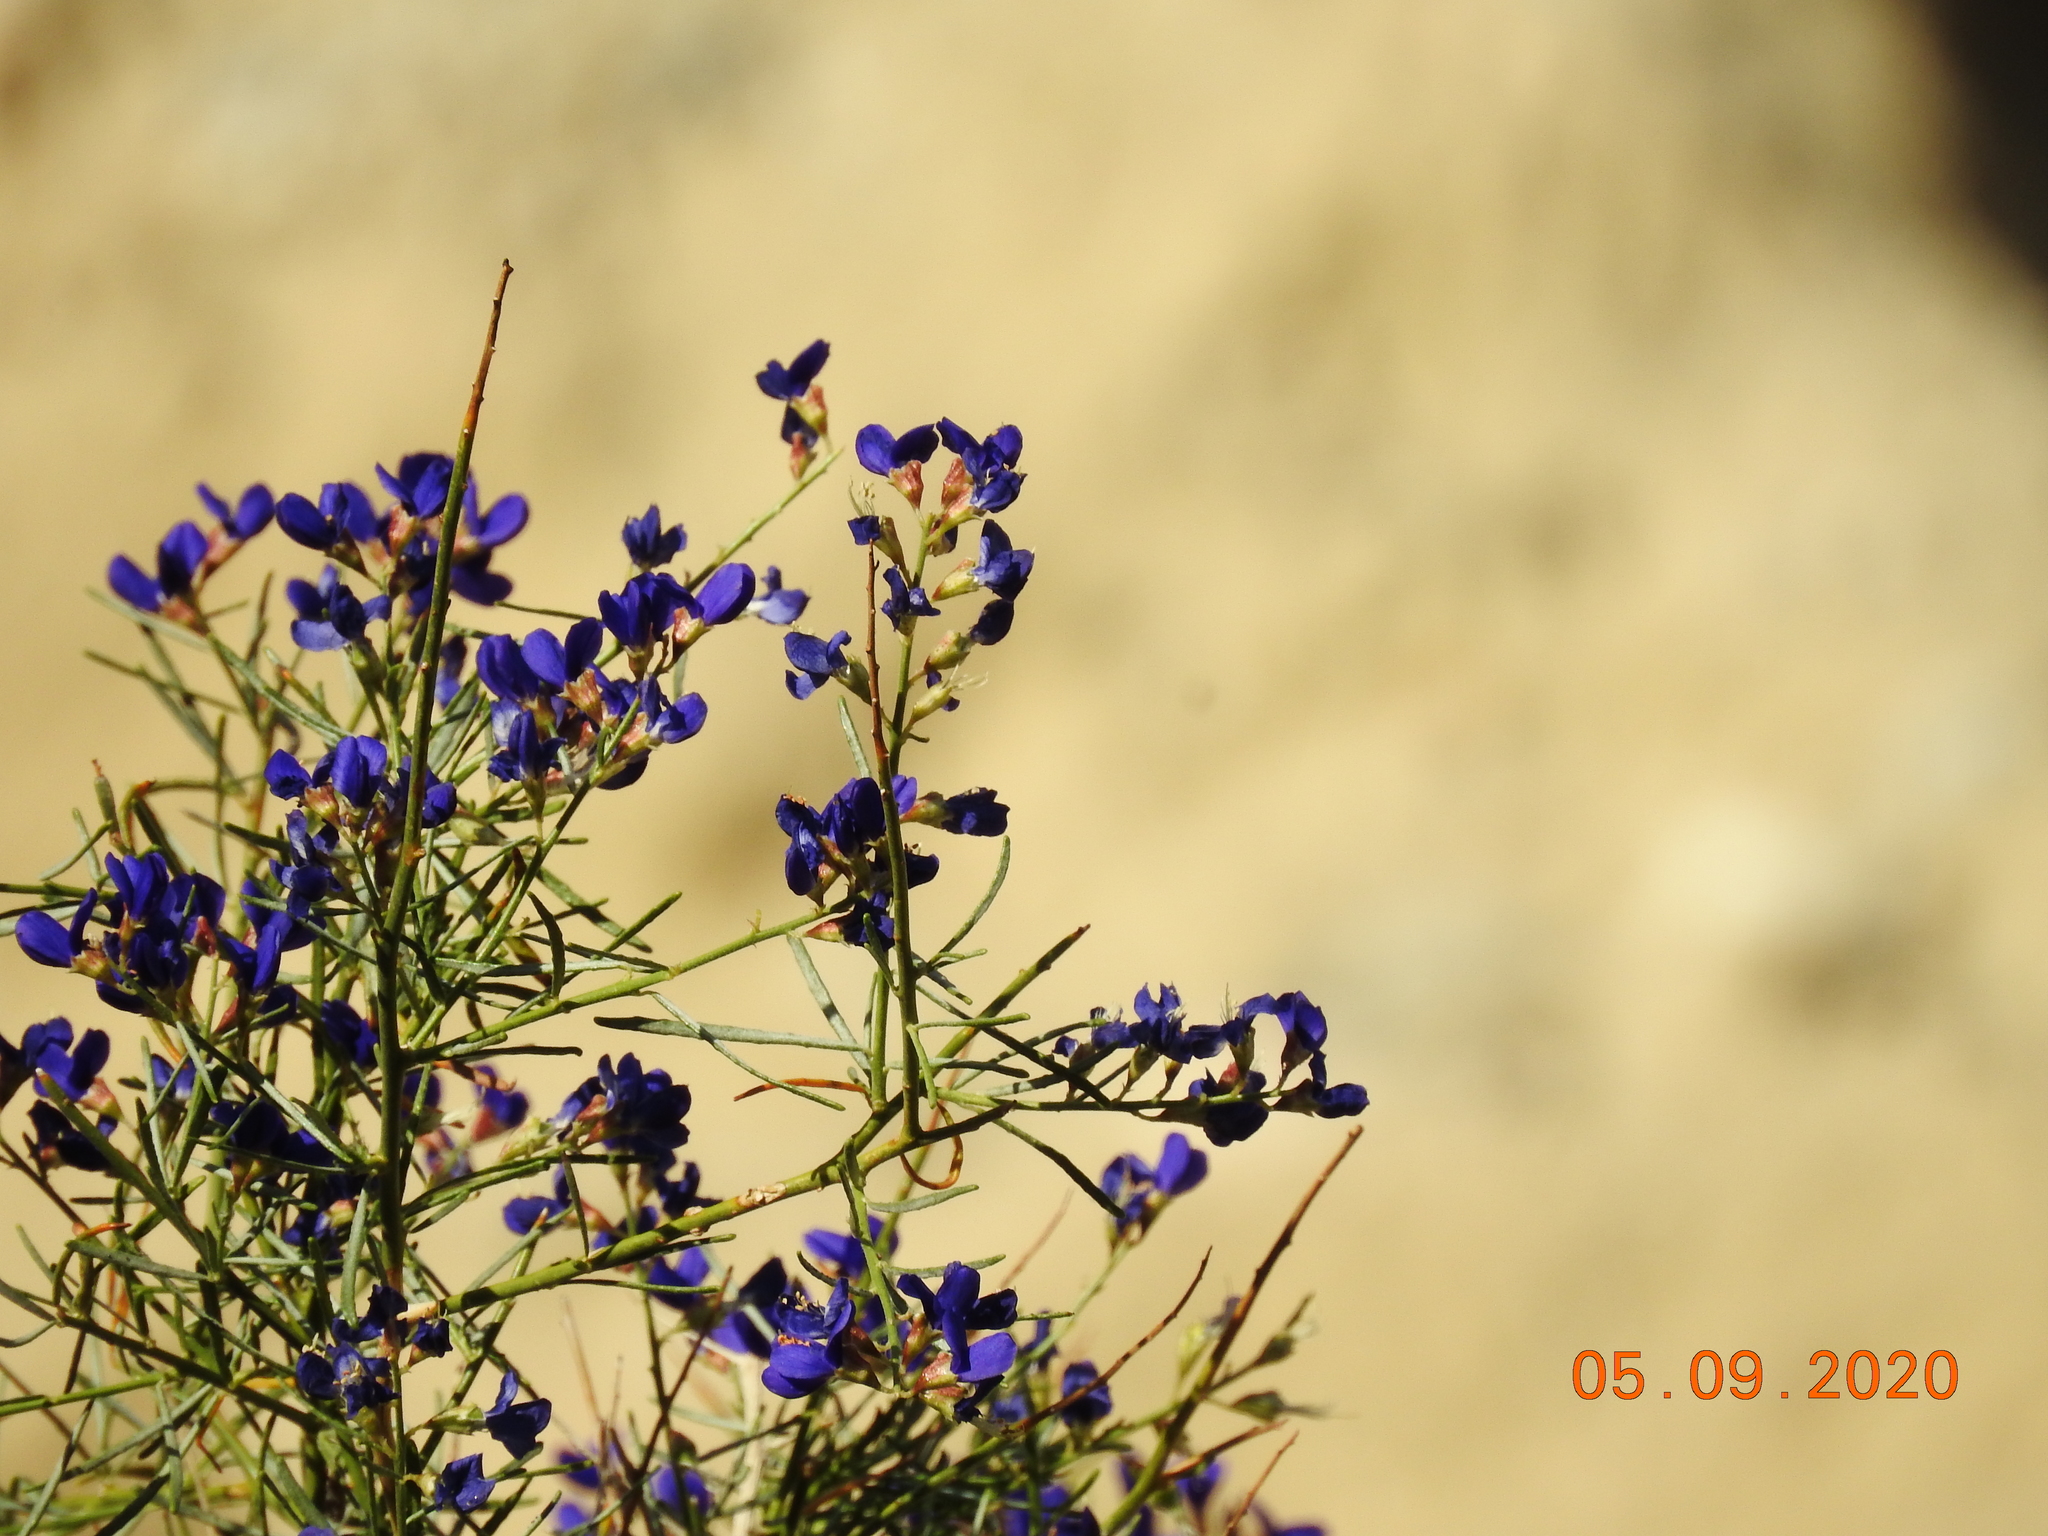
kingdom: Plantae
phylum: Tracheophyta
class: Magnoliopsida
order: Fabales
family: Fabaceae
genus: Psorothamnus
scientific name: Psorothamnus schottii
